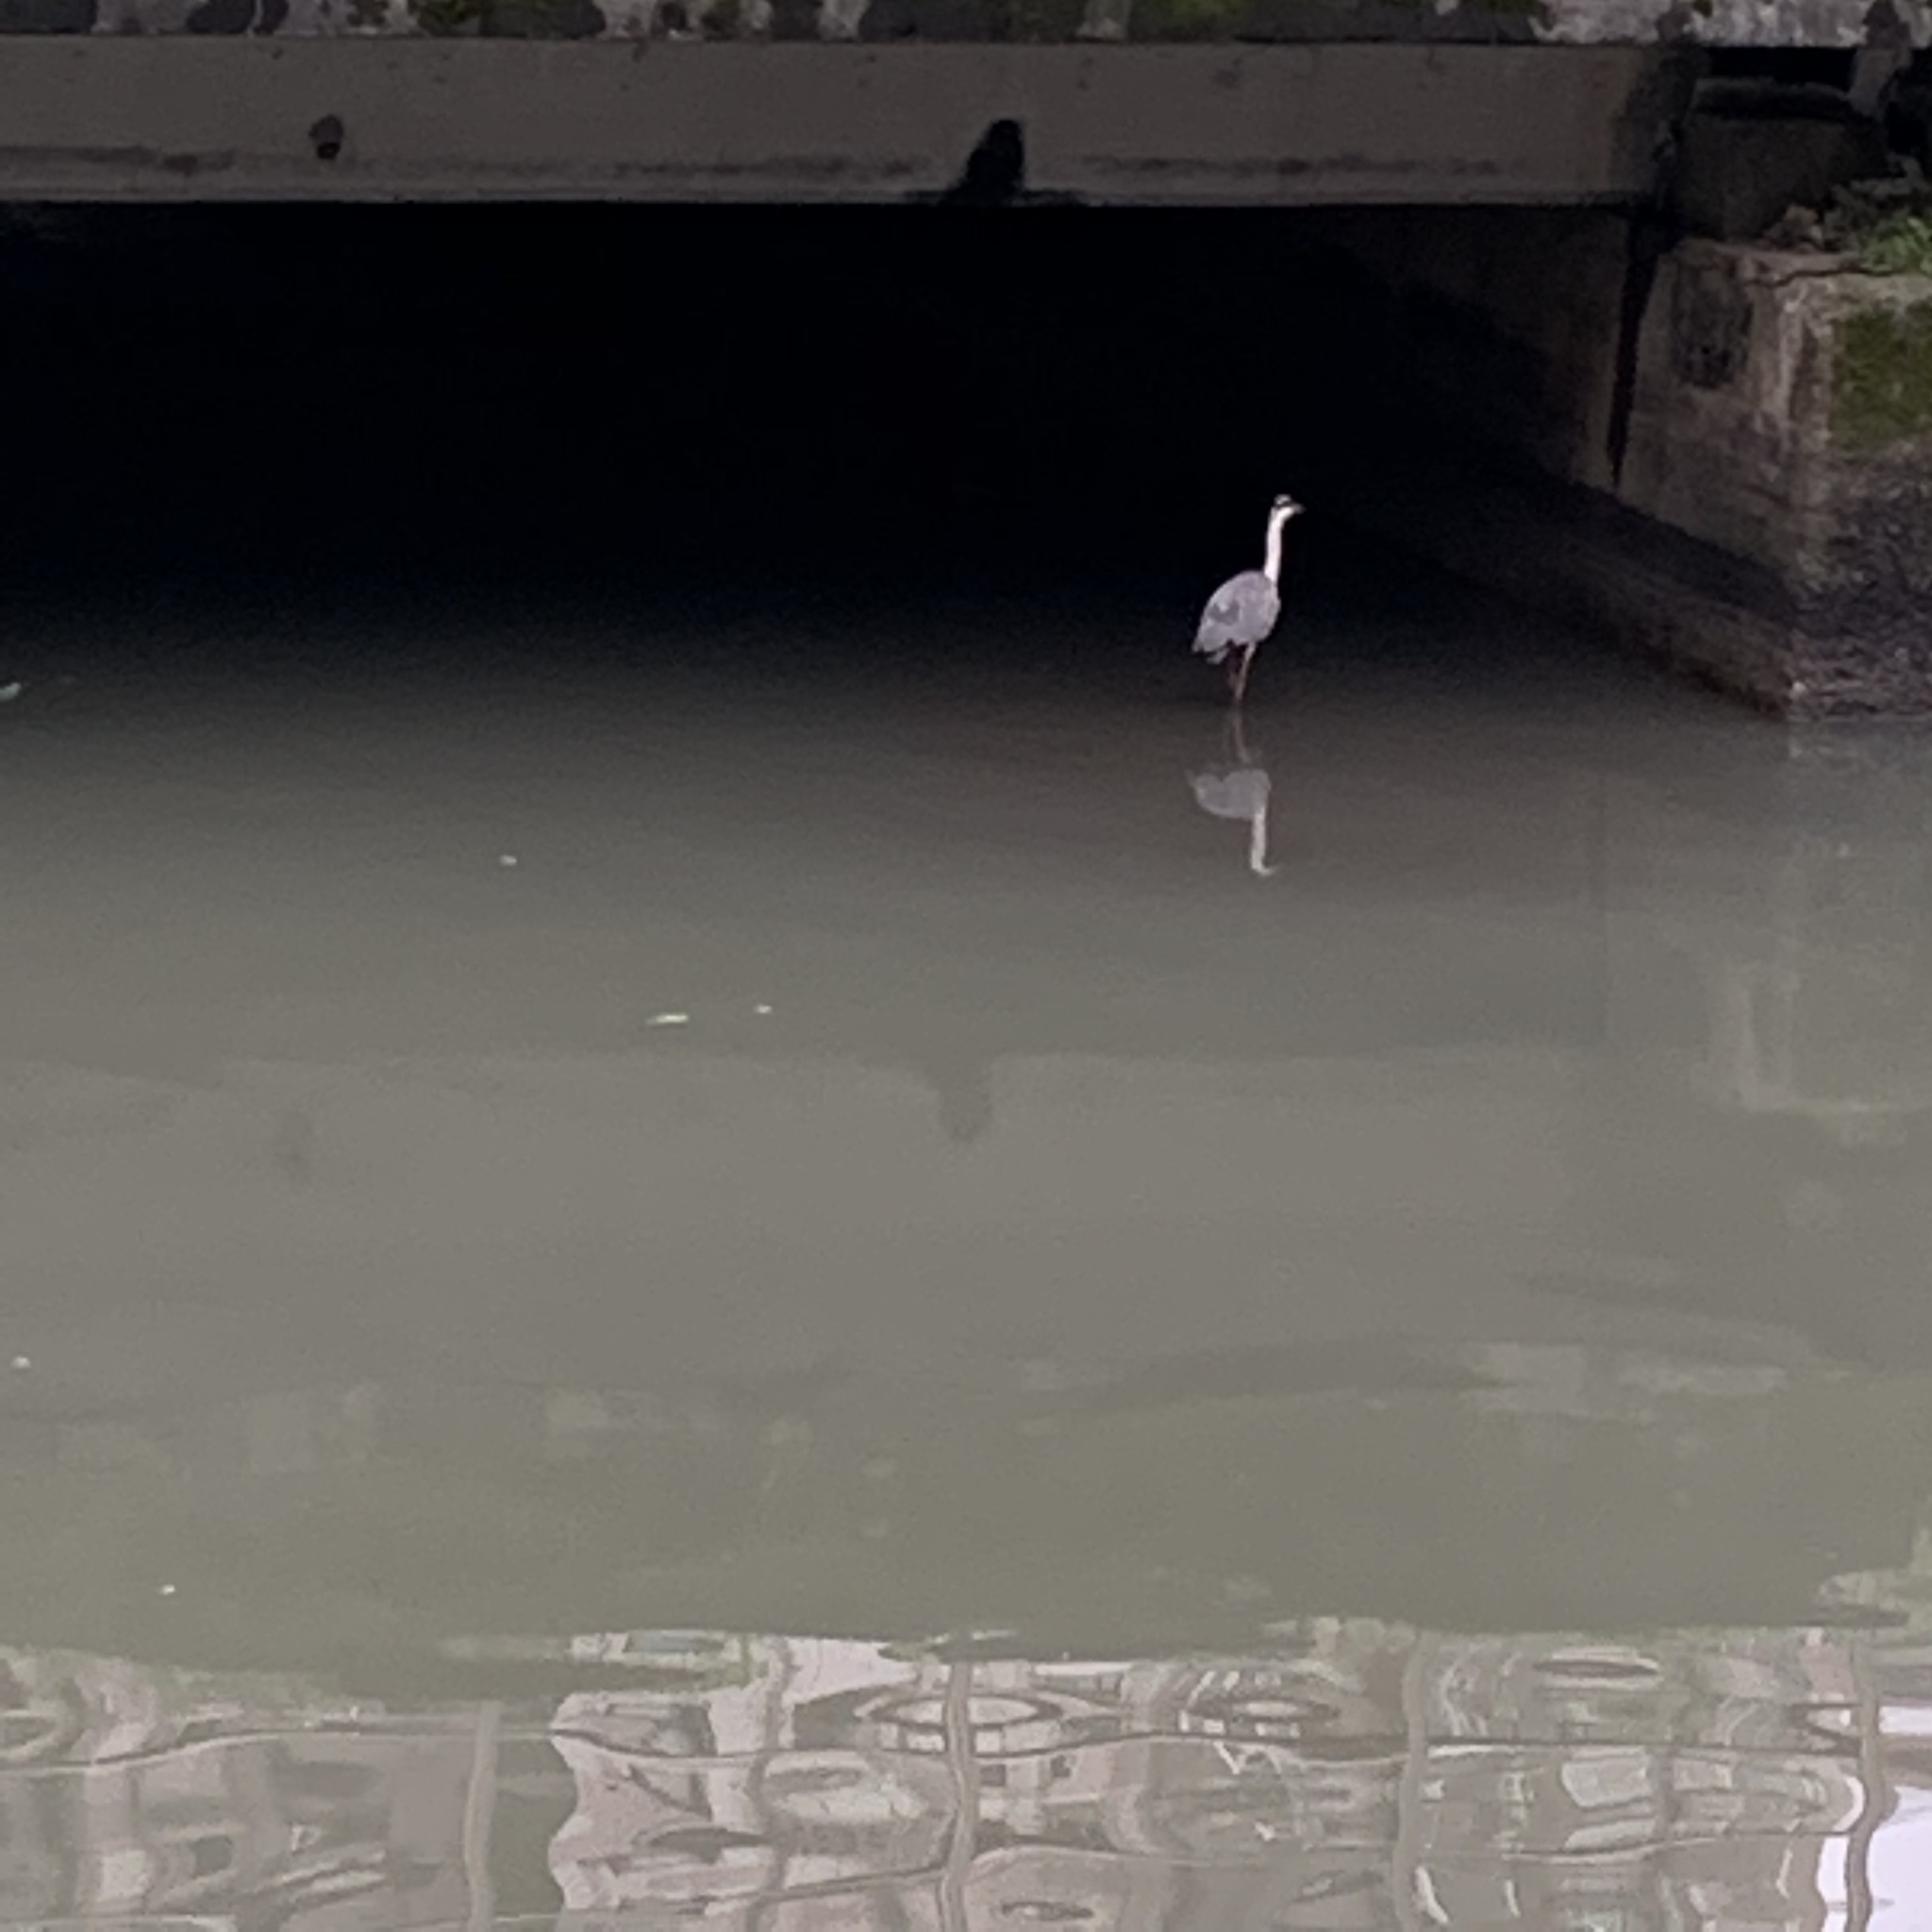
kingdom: Animalia
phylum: Chordata
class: Aves
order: Pelecaniformes
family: Ardeidae
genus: Ardea
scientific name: Ardea cinerea
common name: Grey heron
